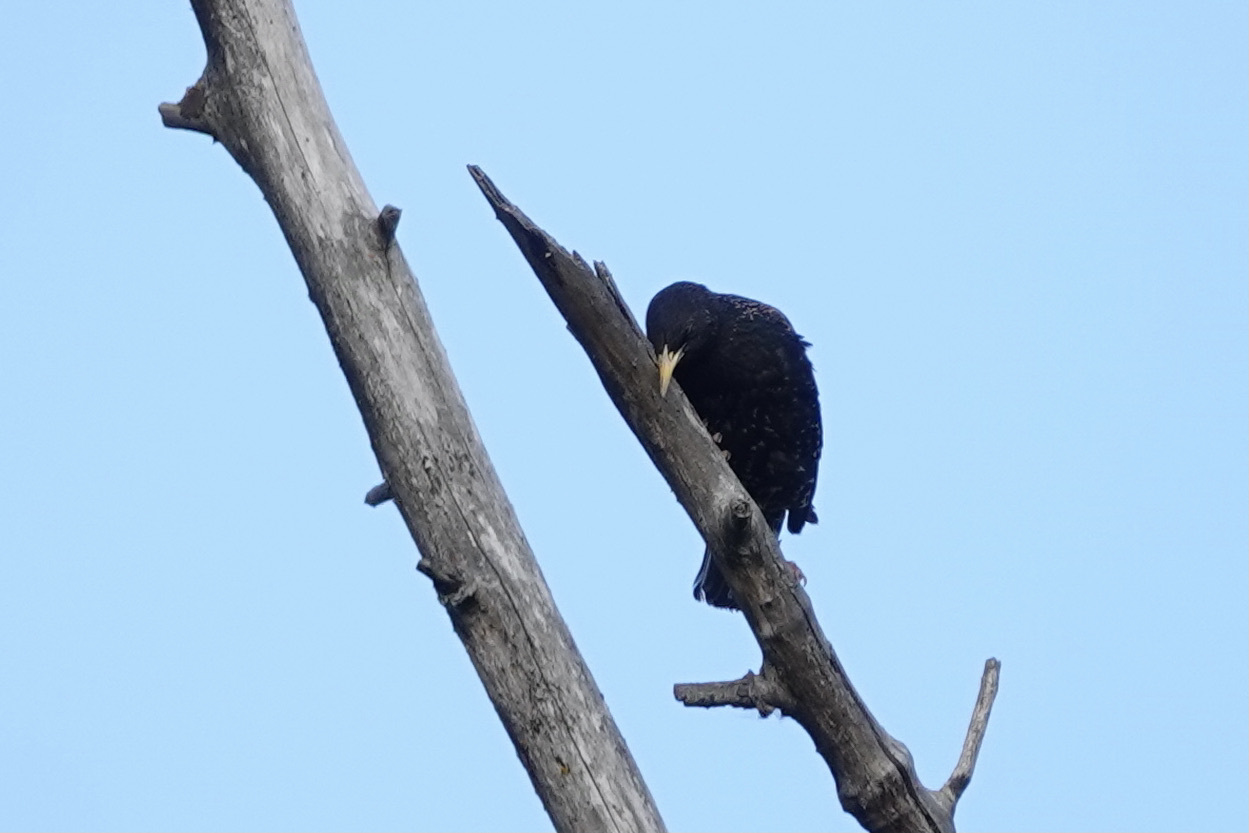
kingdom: Animalia
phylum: Chordata
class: Aves
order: Passeriformes
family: Sturnidae
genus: Sturnus
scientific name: Sturnus vulgaris
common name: Common starling
